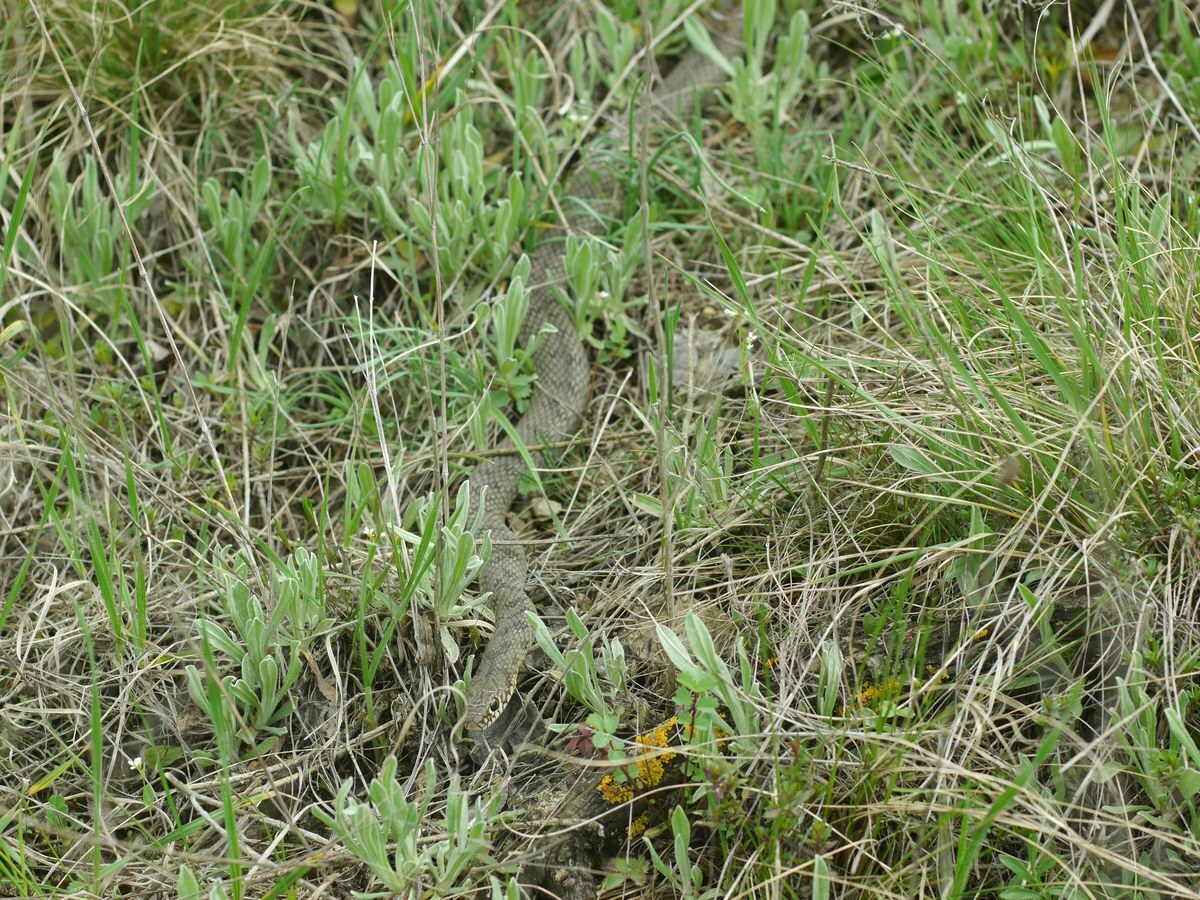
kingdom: Animalia
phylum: Chordata
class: Squamata
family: Colubridae
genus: Dolichophis
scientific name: Dolichophis caspius
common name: Large whip snake
